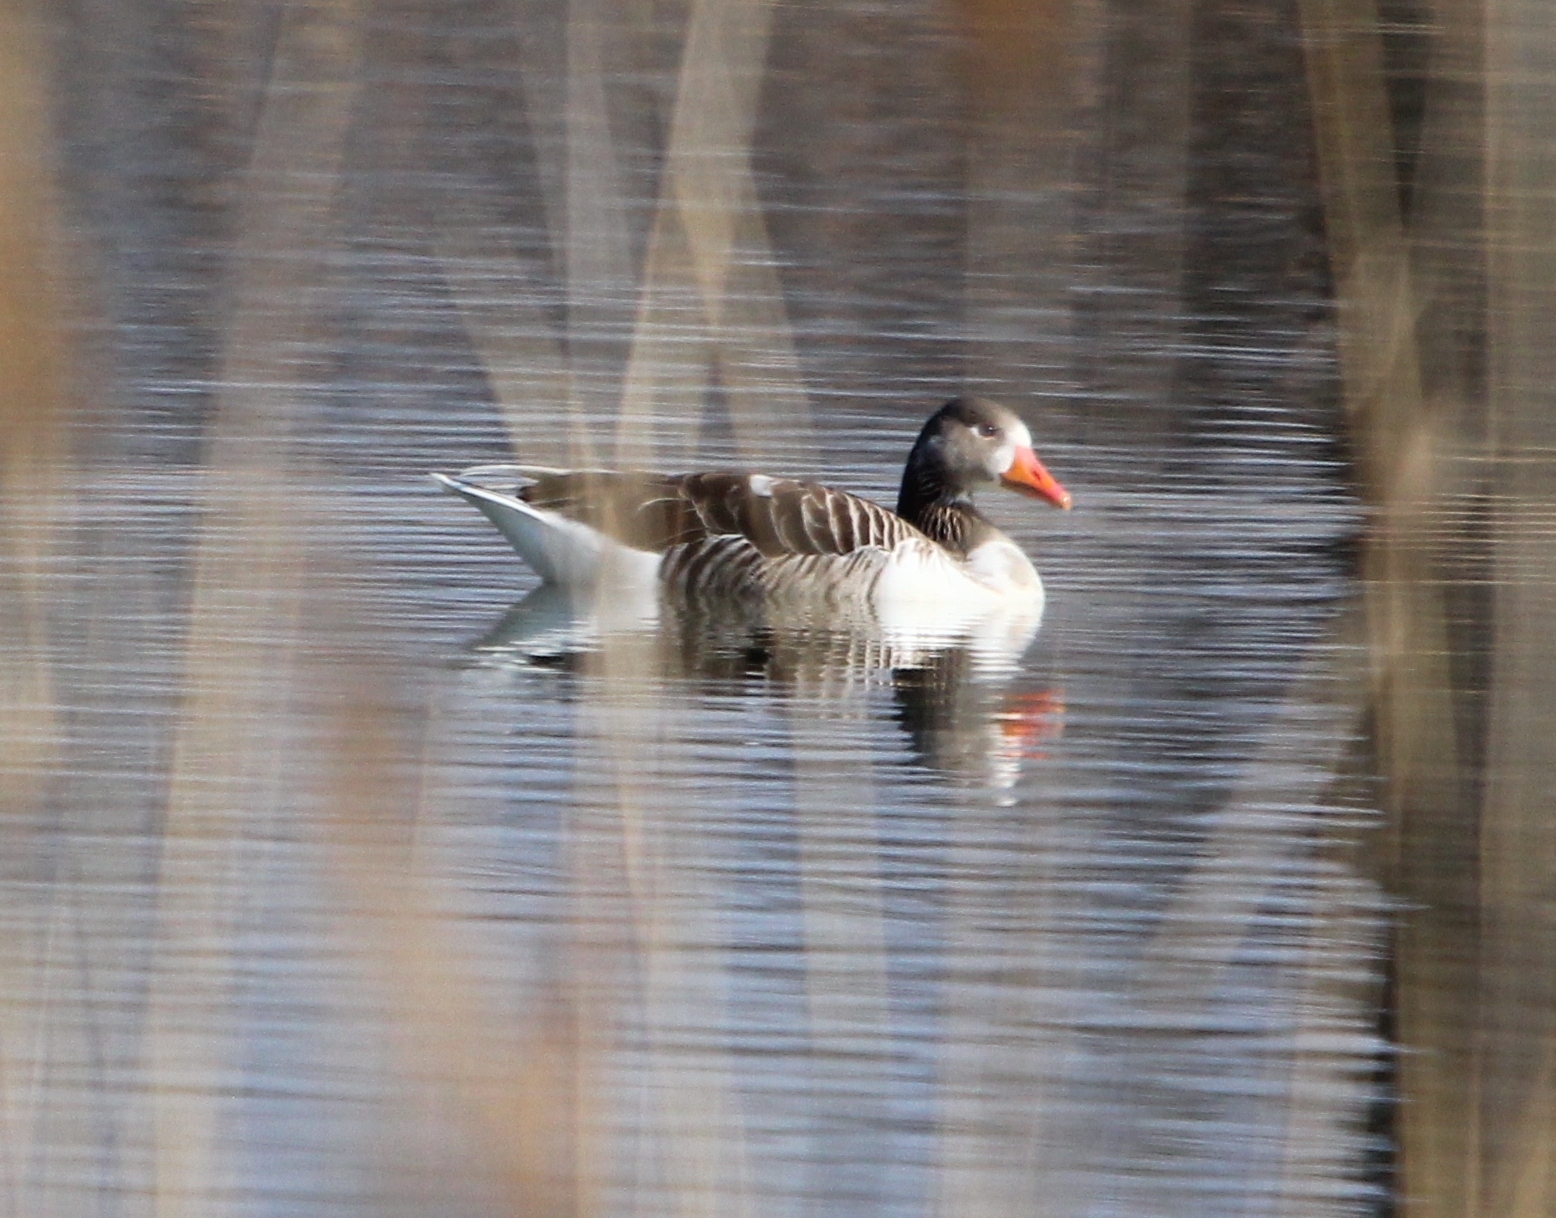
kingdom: Animalia
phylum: Chordata
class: Aves
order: Anseriformes
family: Anatidae
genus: Anser
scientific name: Anser anser
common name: Greylag goose
